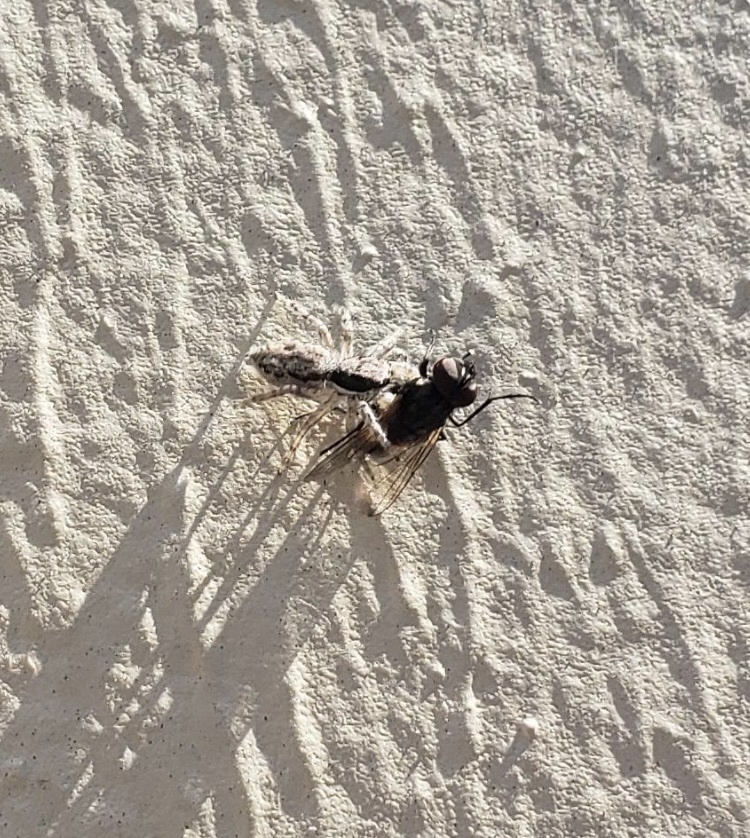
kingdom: Animalia
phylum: Arthropoda
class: Arachnida
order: Araneae
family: Salticidae
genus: Menemerus
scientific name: Menemerus bivittatus
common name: Gray wall jumper
